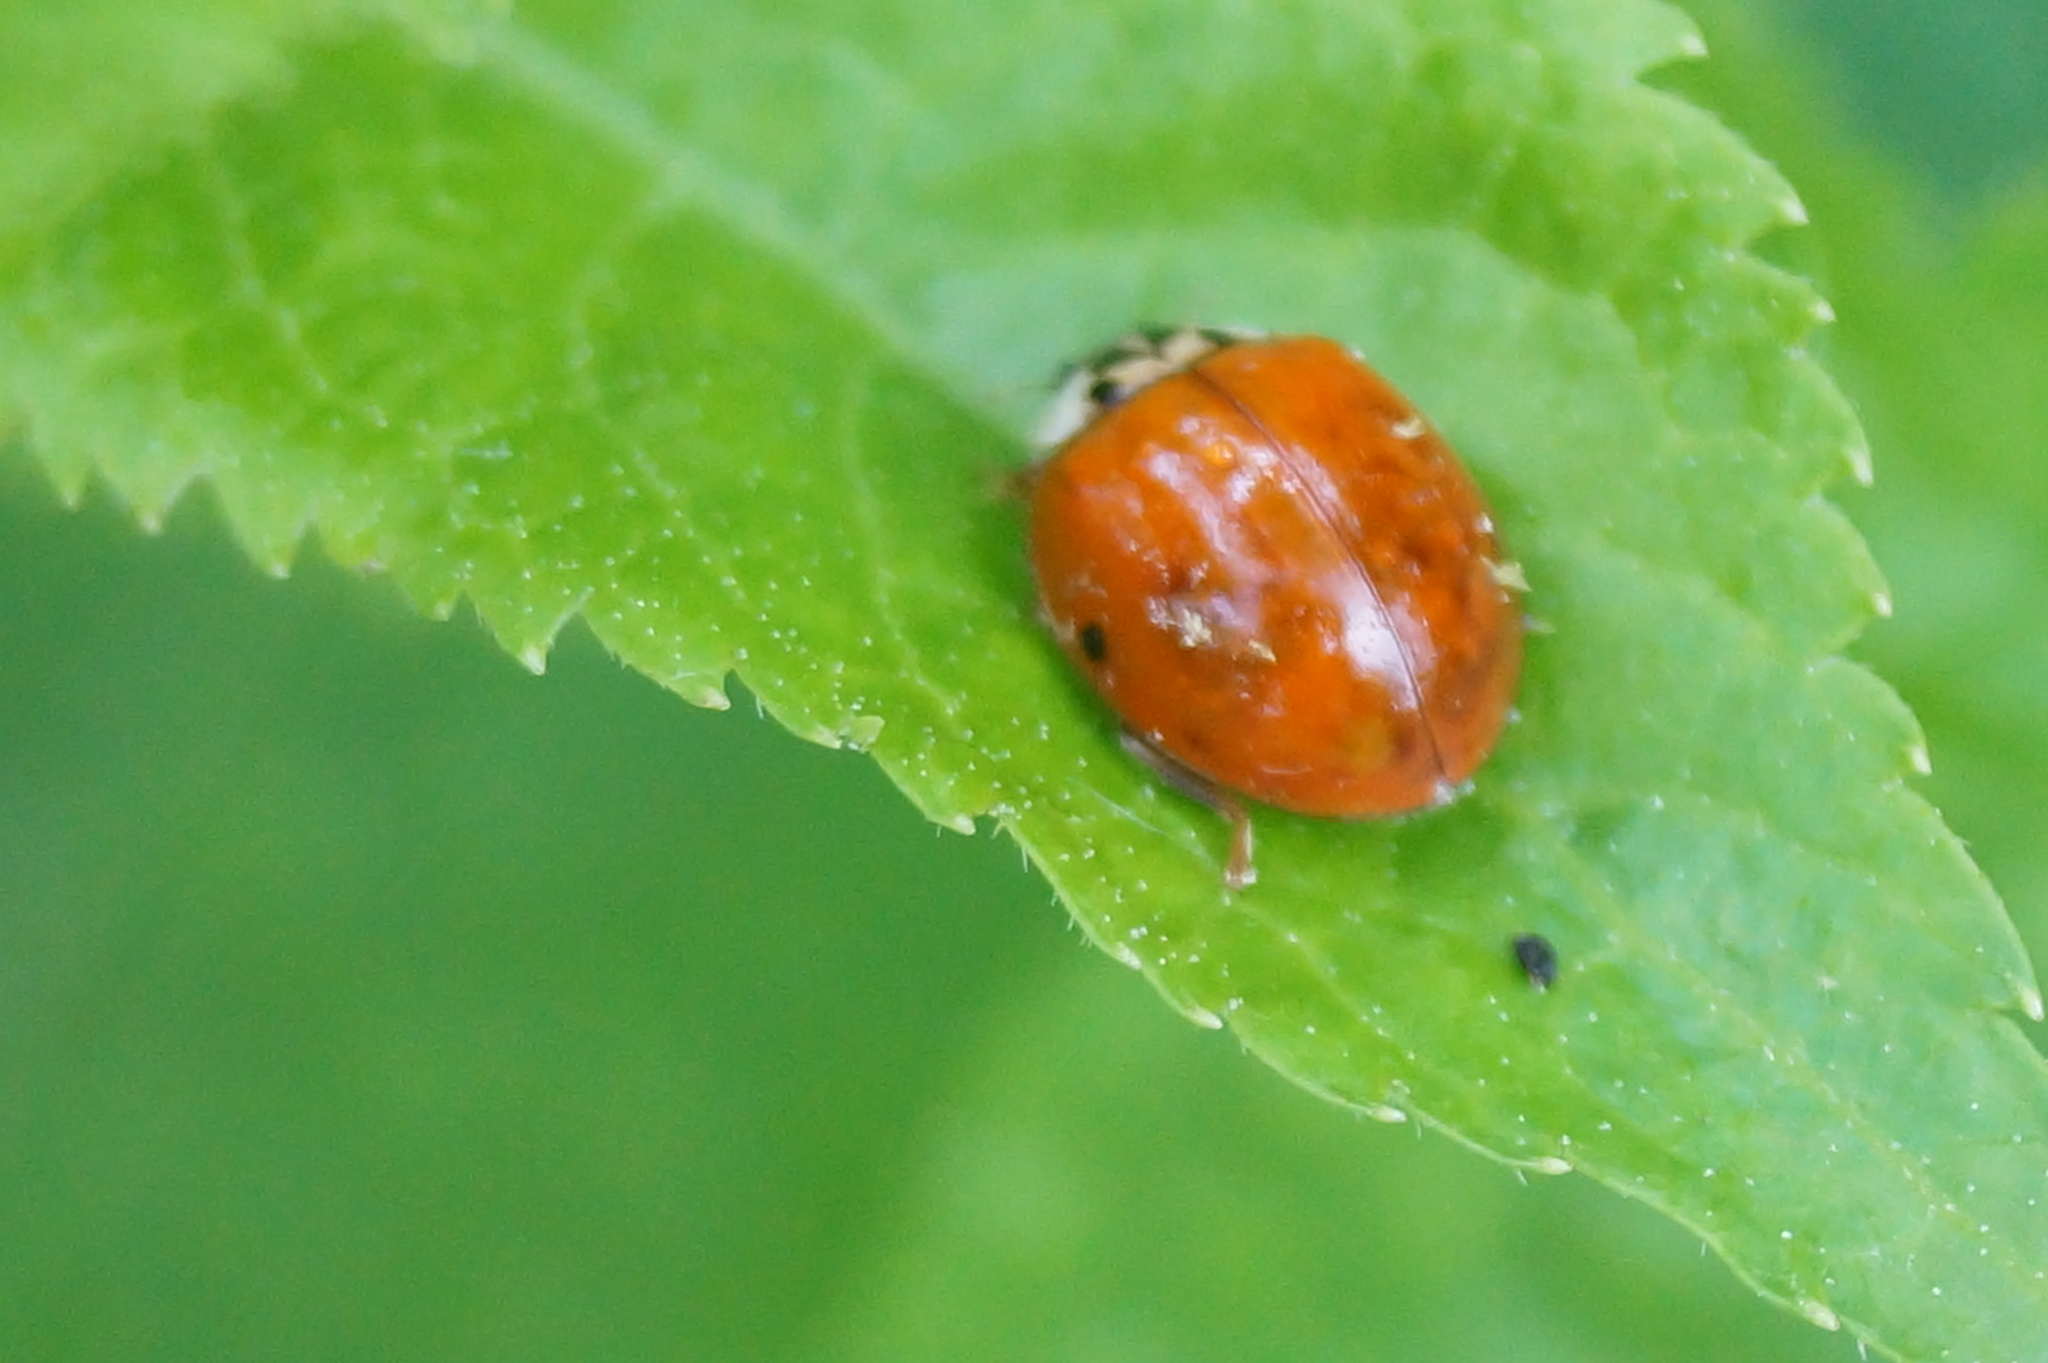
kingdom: Animalia
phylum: Arthropoda
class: Insecta
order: Coleoptera
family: Coccinellidae
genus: Harmonia
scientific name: Harmonia axyridis
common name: Harlequin ladybird
